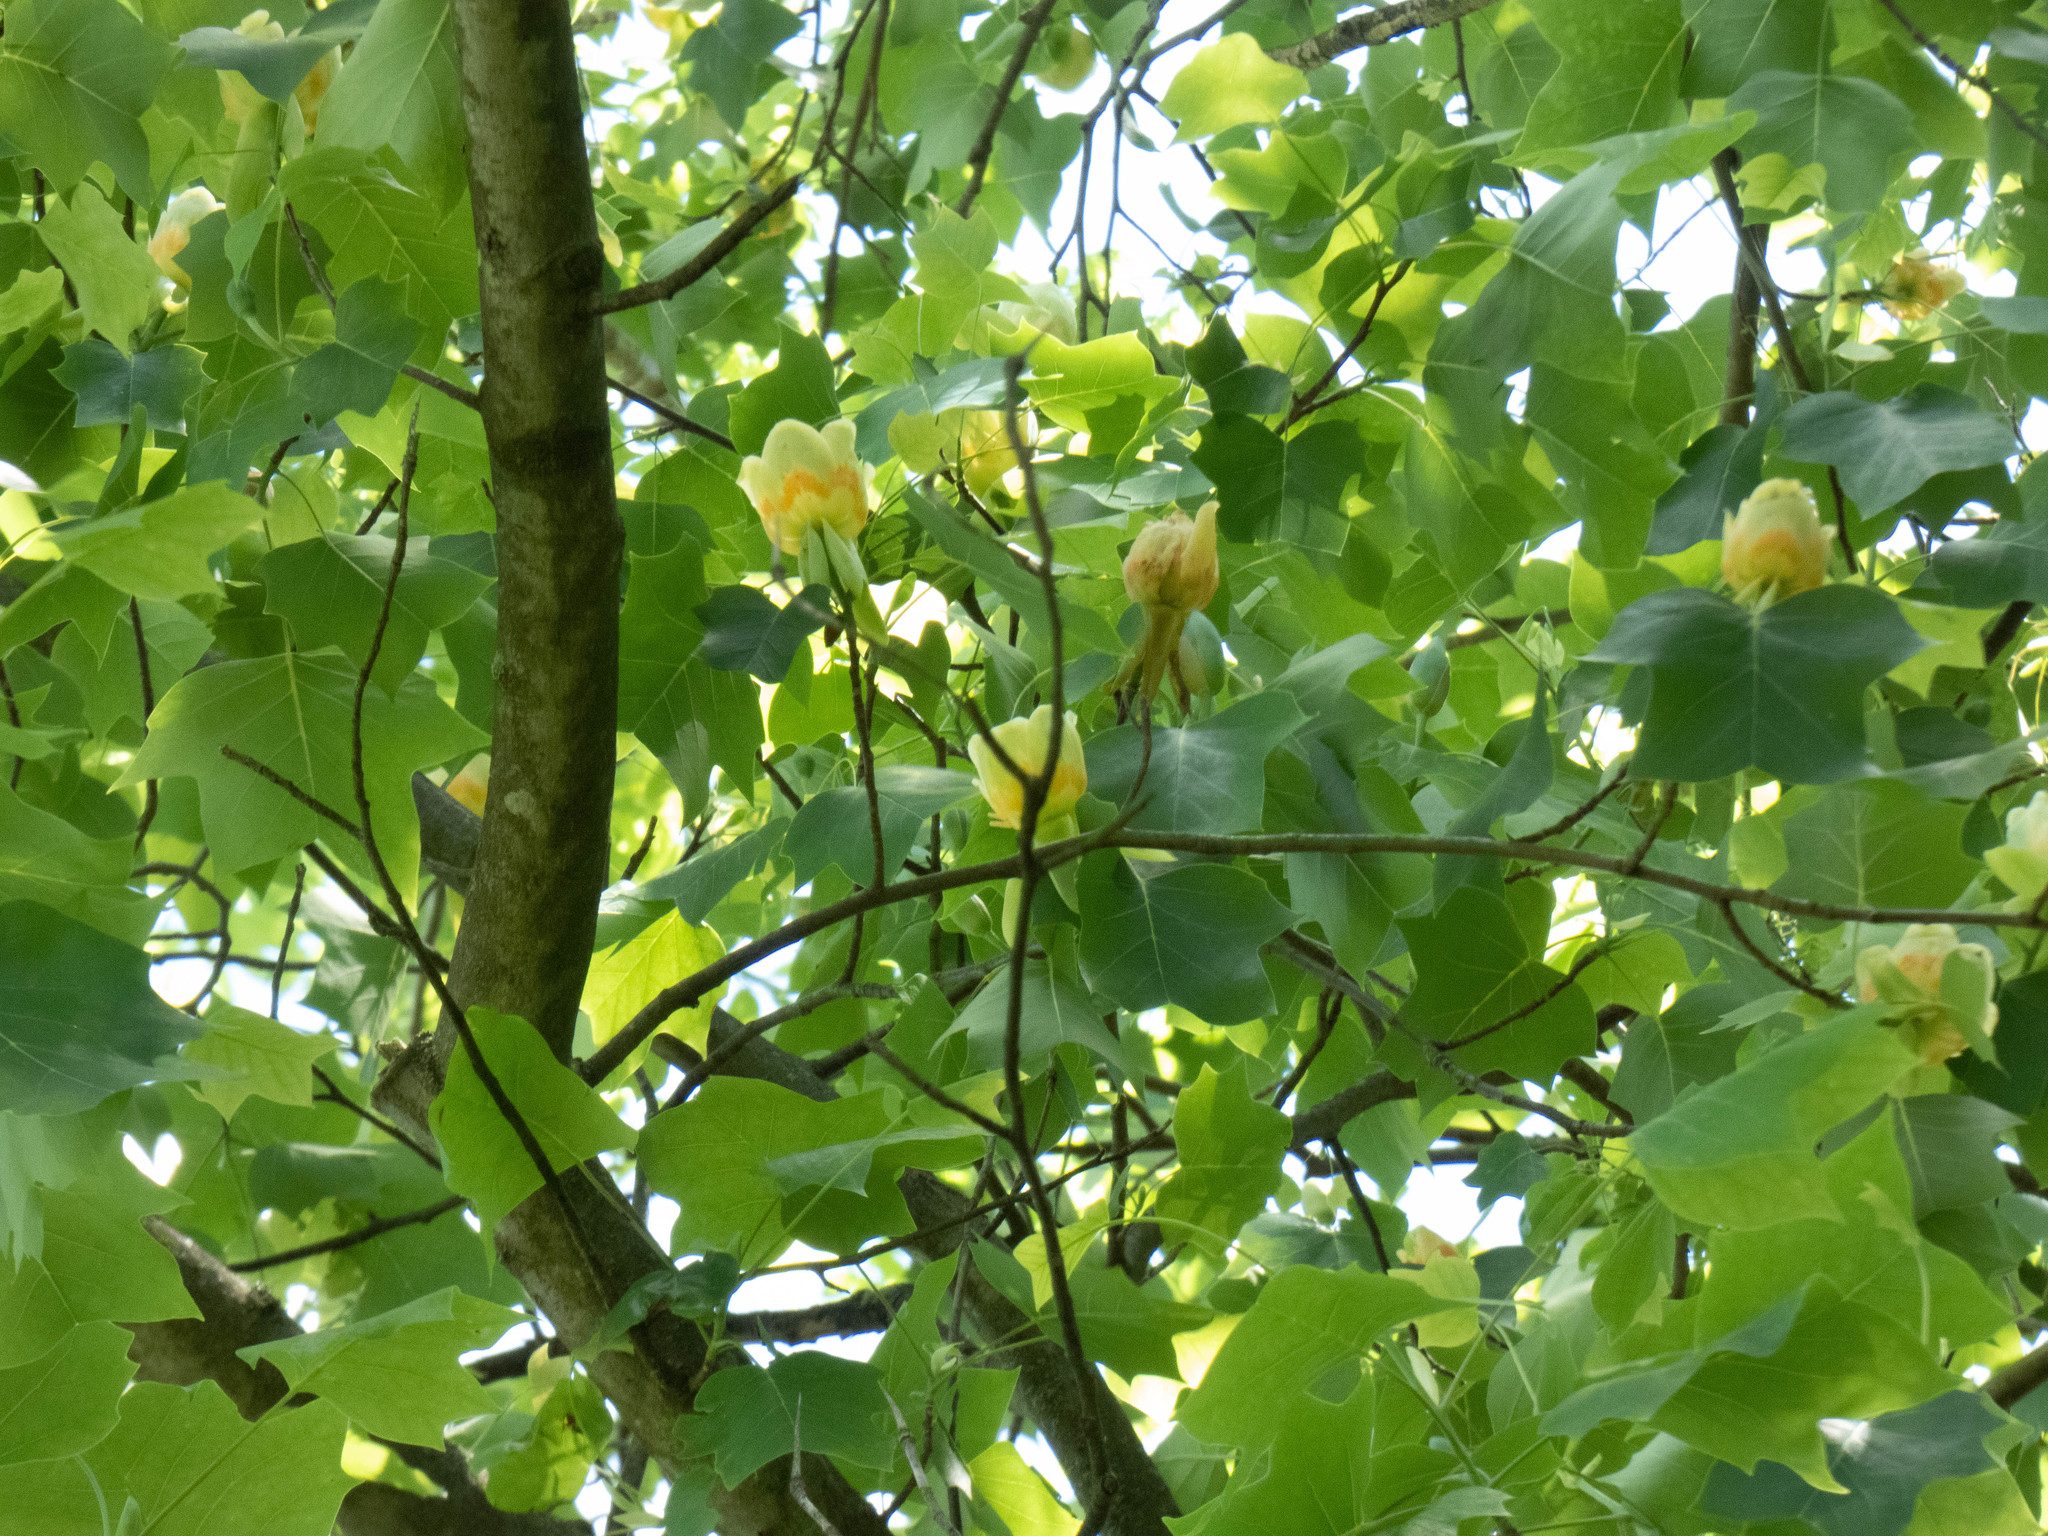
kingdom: Plantae
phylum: Tracheophyta
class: Magnoliopsida
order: Magnoliales
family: Magnoliaceae
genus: Liriodendron
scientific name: Liriodendron tulipifera
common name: Tulip tree
